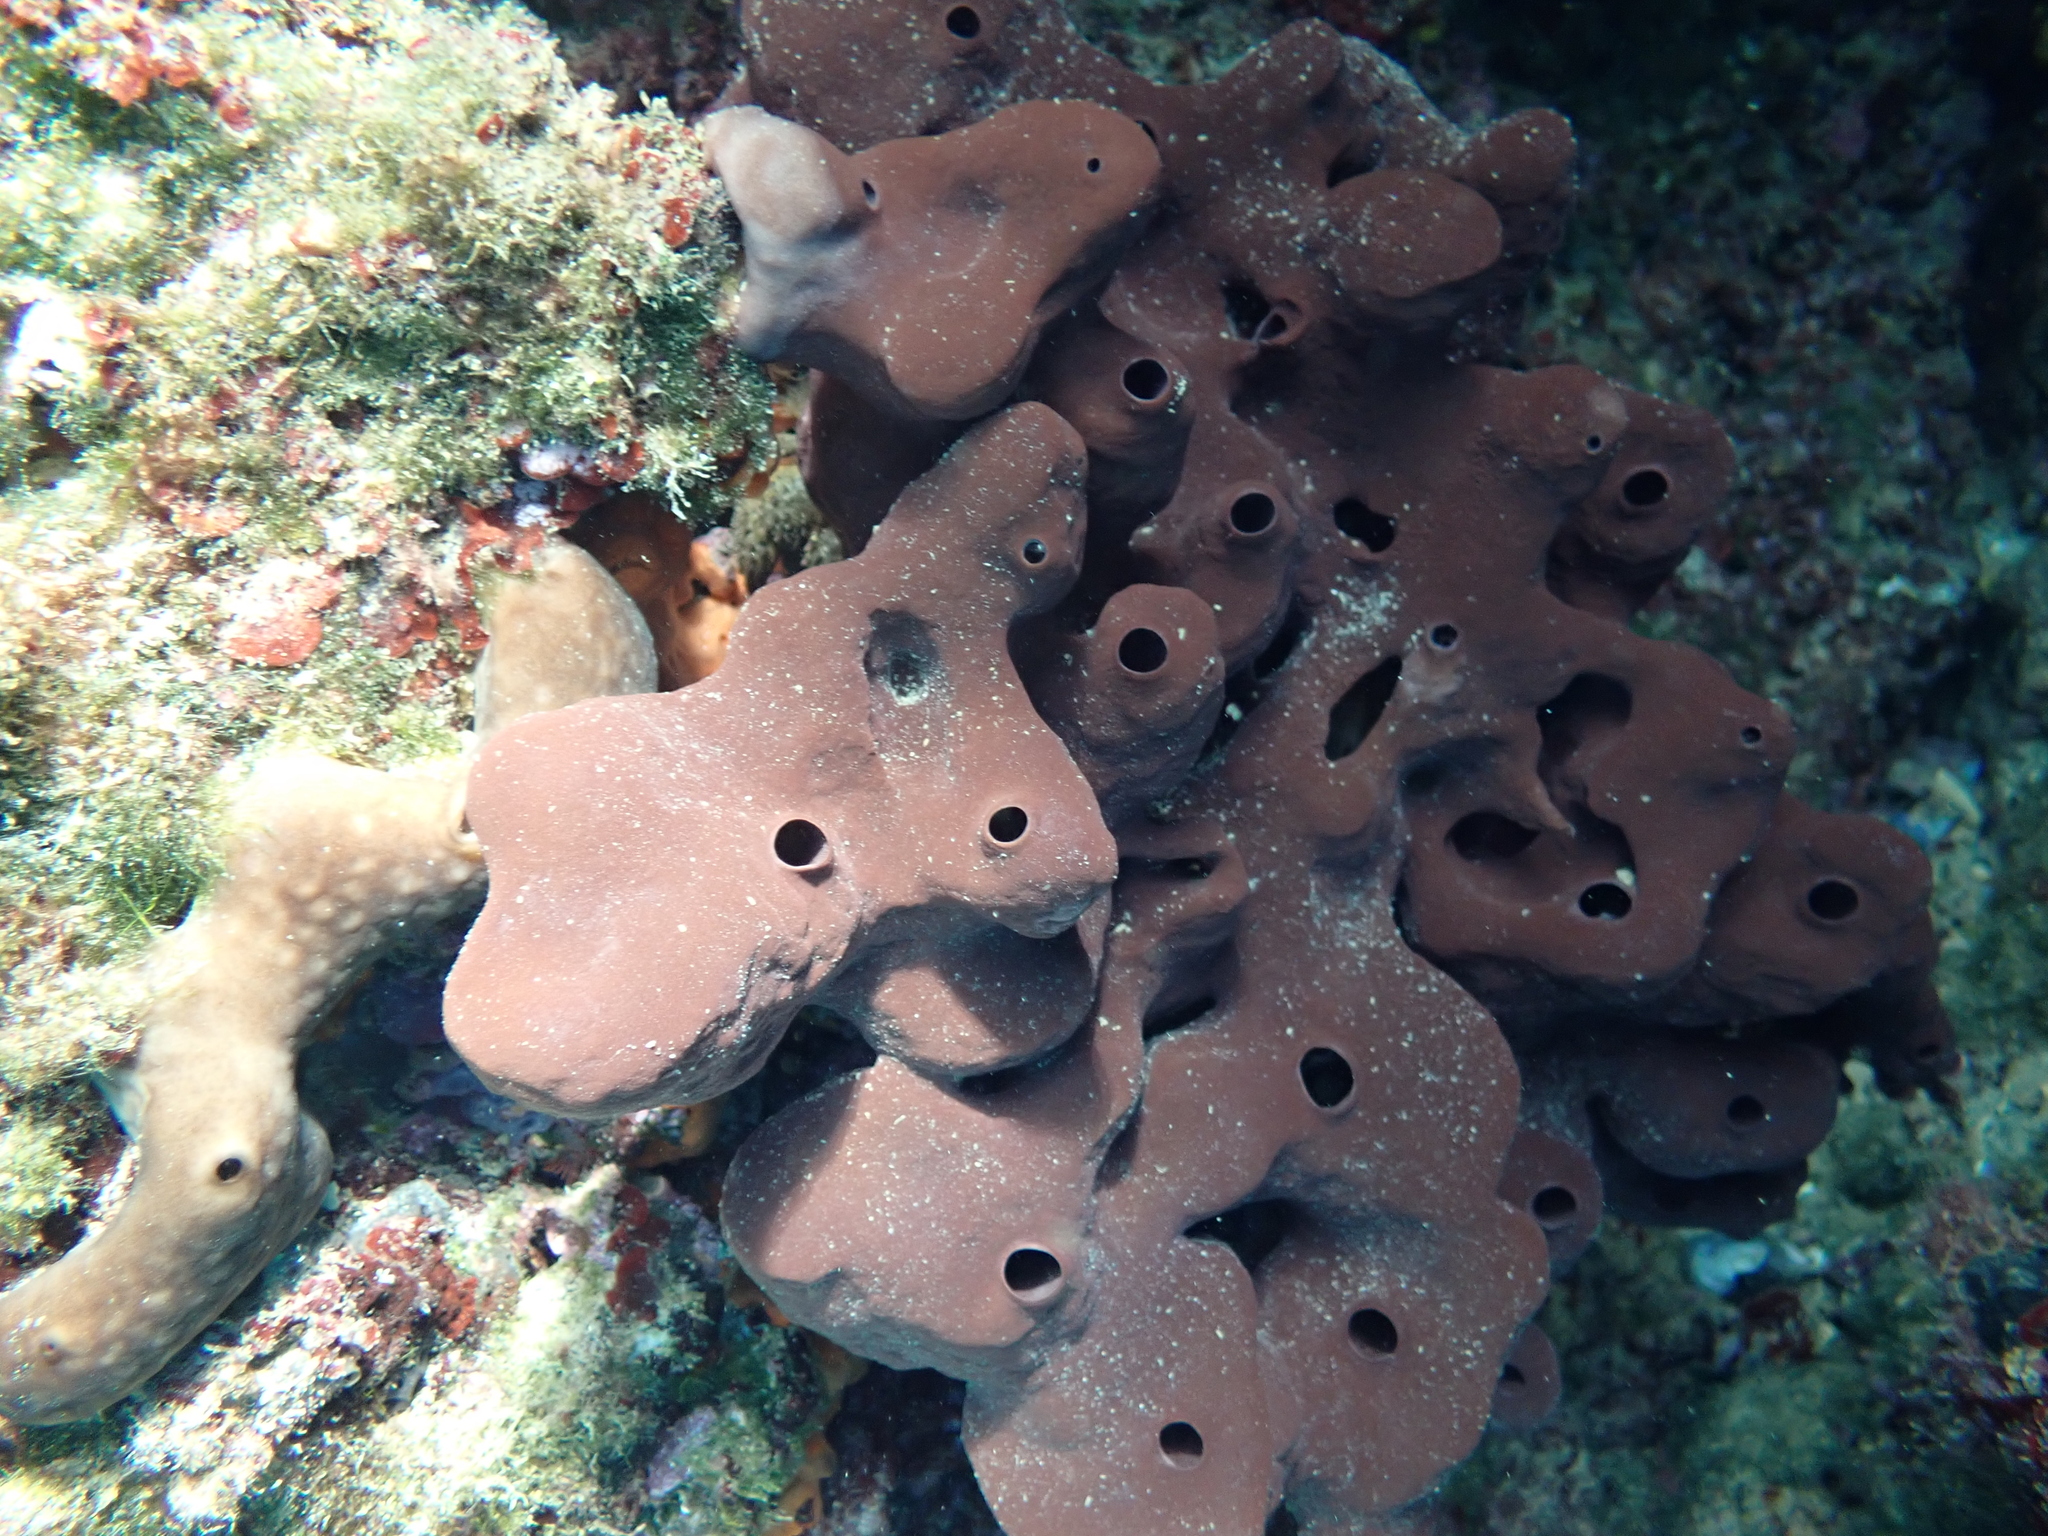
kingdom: Animalia
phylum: Porifera
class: Demospongiae
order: Haplosclerida
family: Petrosiidae
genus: Petrosia
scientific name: Petrosia ficiformis
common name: Stony sponge
